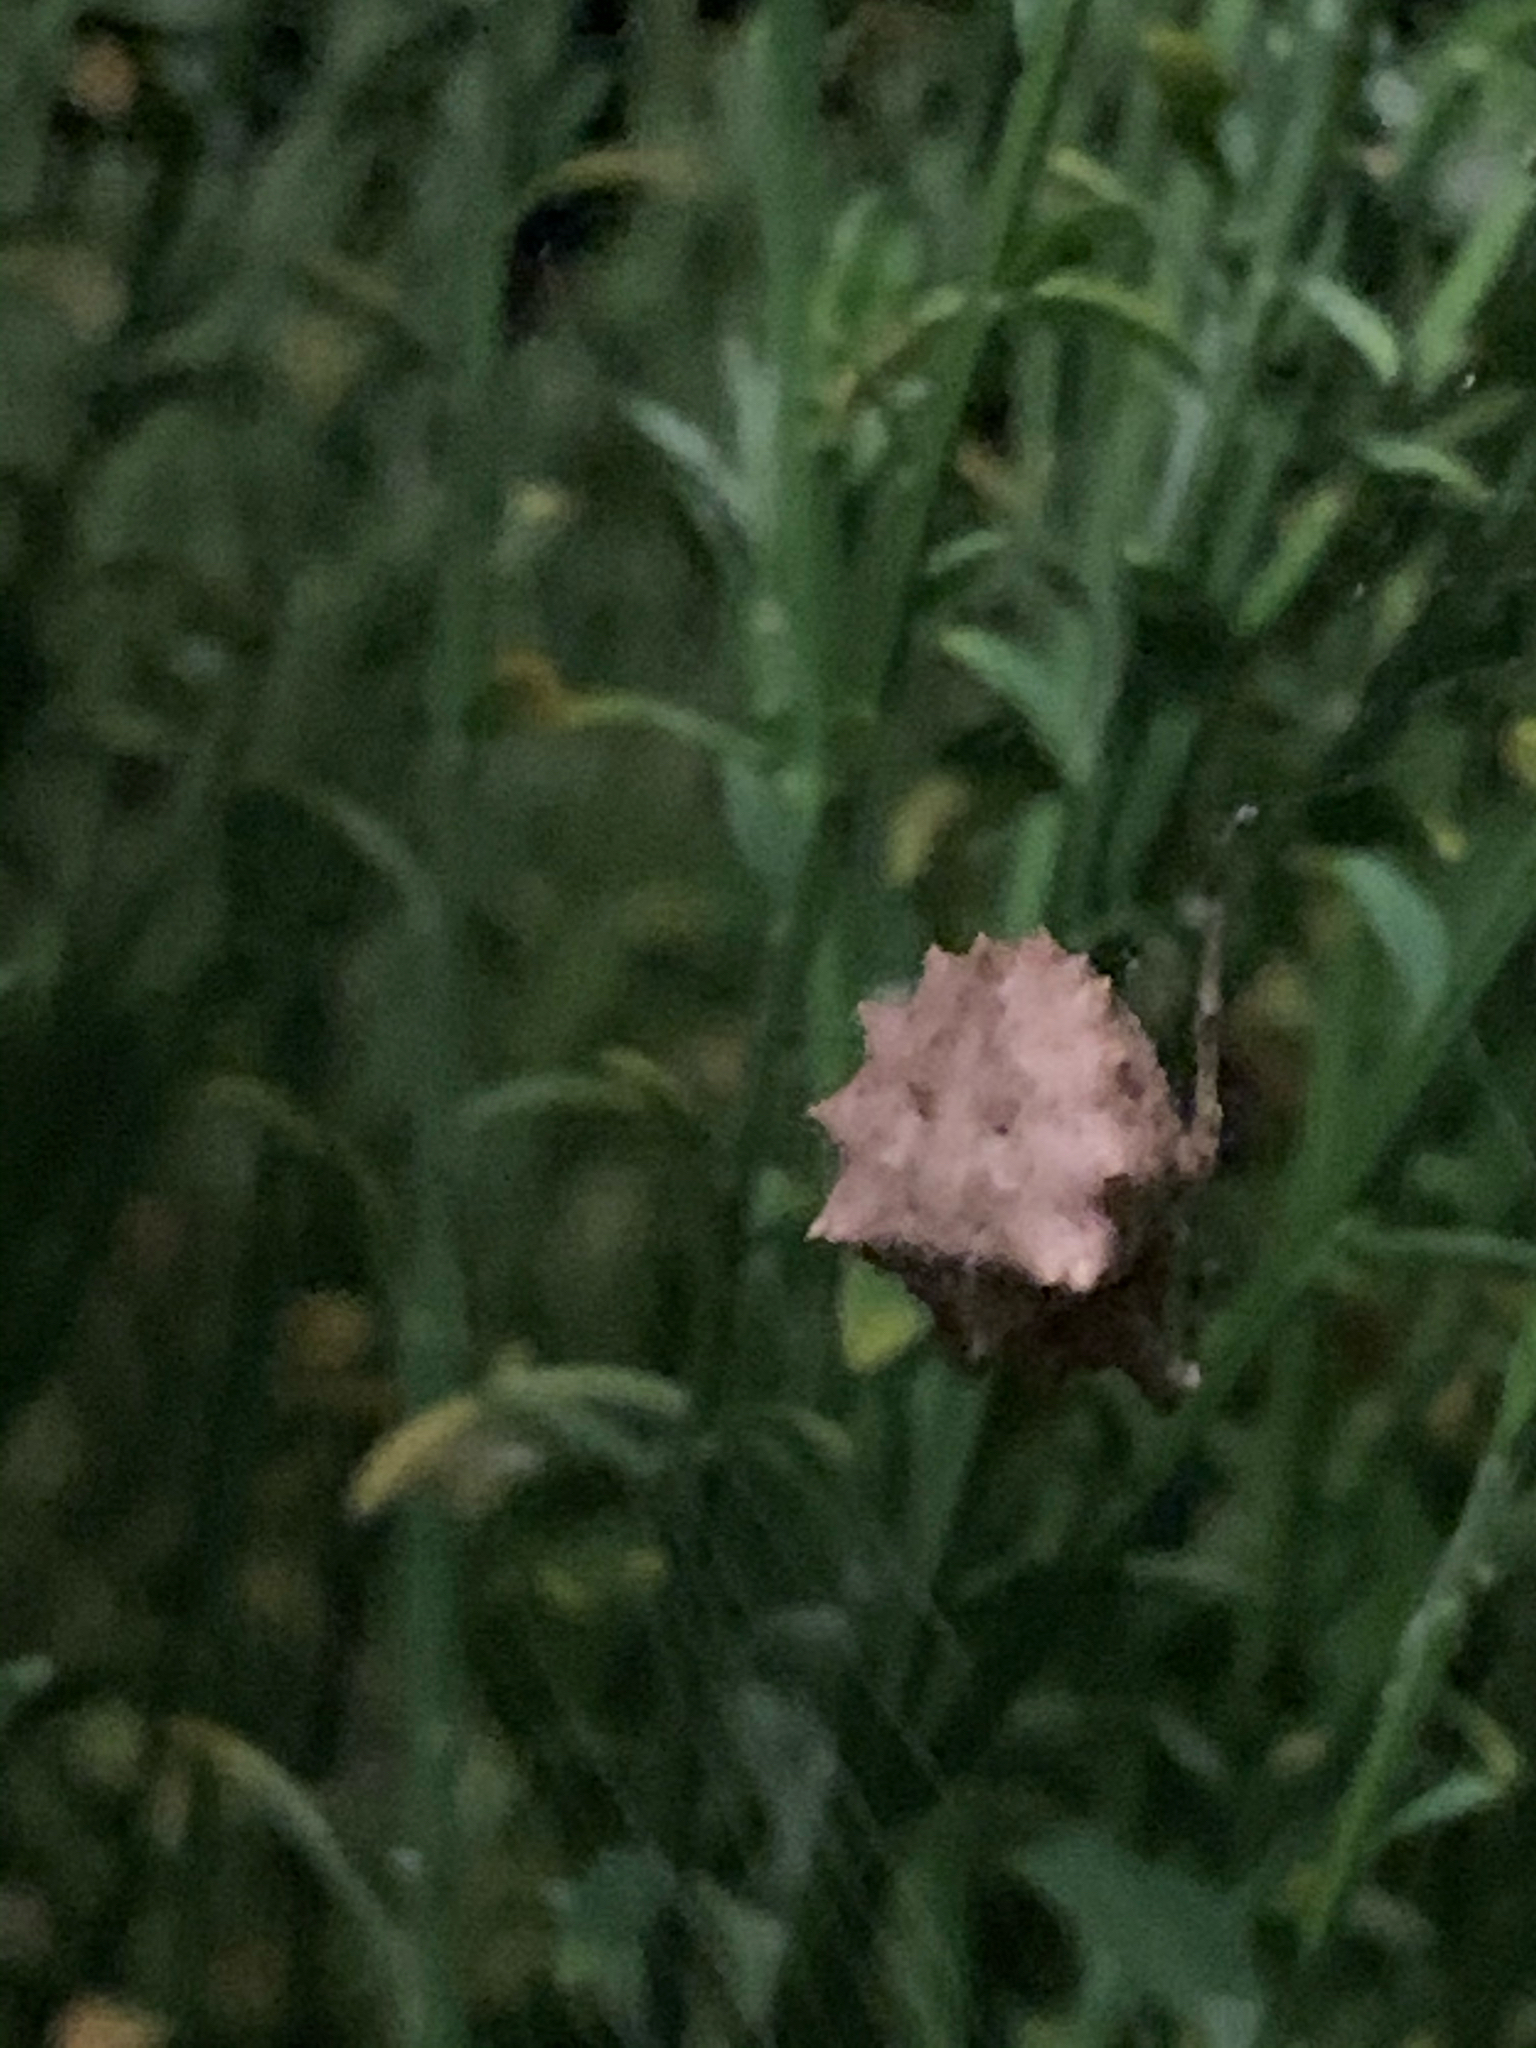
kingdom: Animalia
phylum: Arthropoda
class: Arachnida
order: Araneae
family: Araneidae
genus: Acanthepeira
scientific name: Acanthepeira stellata
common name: Starbellied orbweaver
